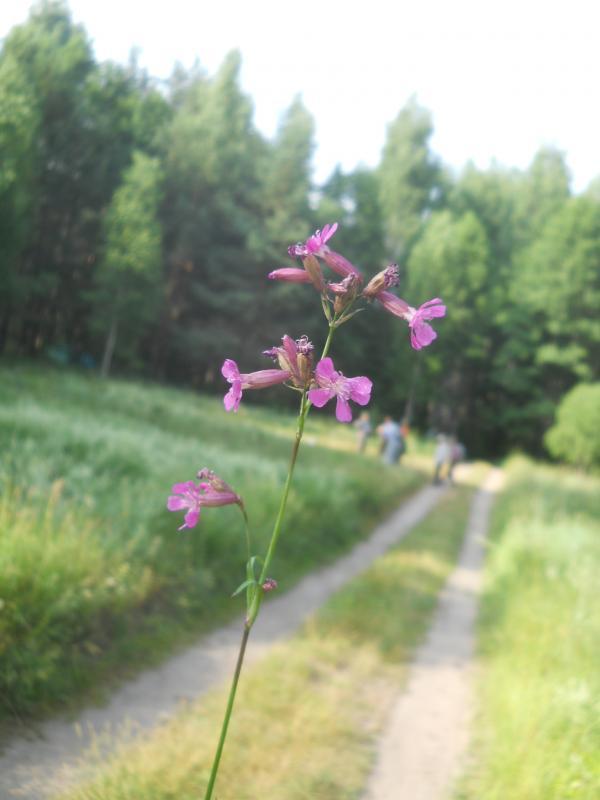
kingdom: Plantae
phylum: Tracheophyta
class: Magnoliopsida
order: Caryophyllales
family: Caryophyllaceae
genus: Viscaria
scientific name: Viscaria vulgaris
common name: Clammy campion
